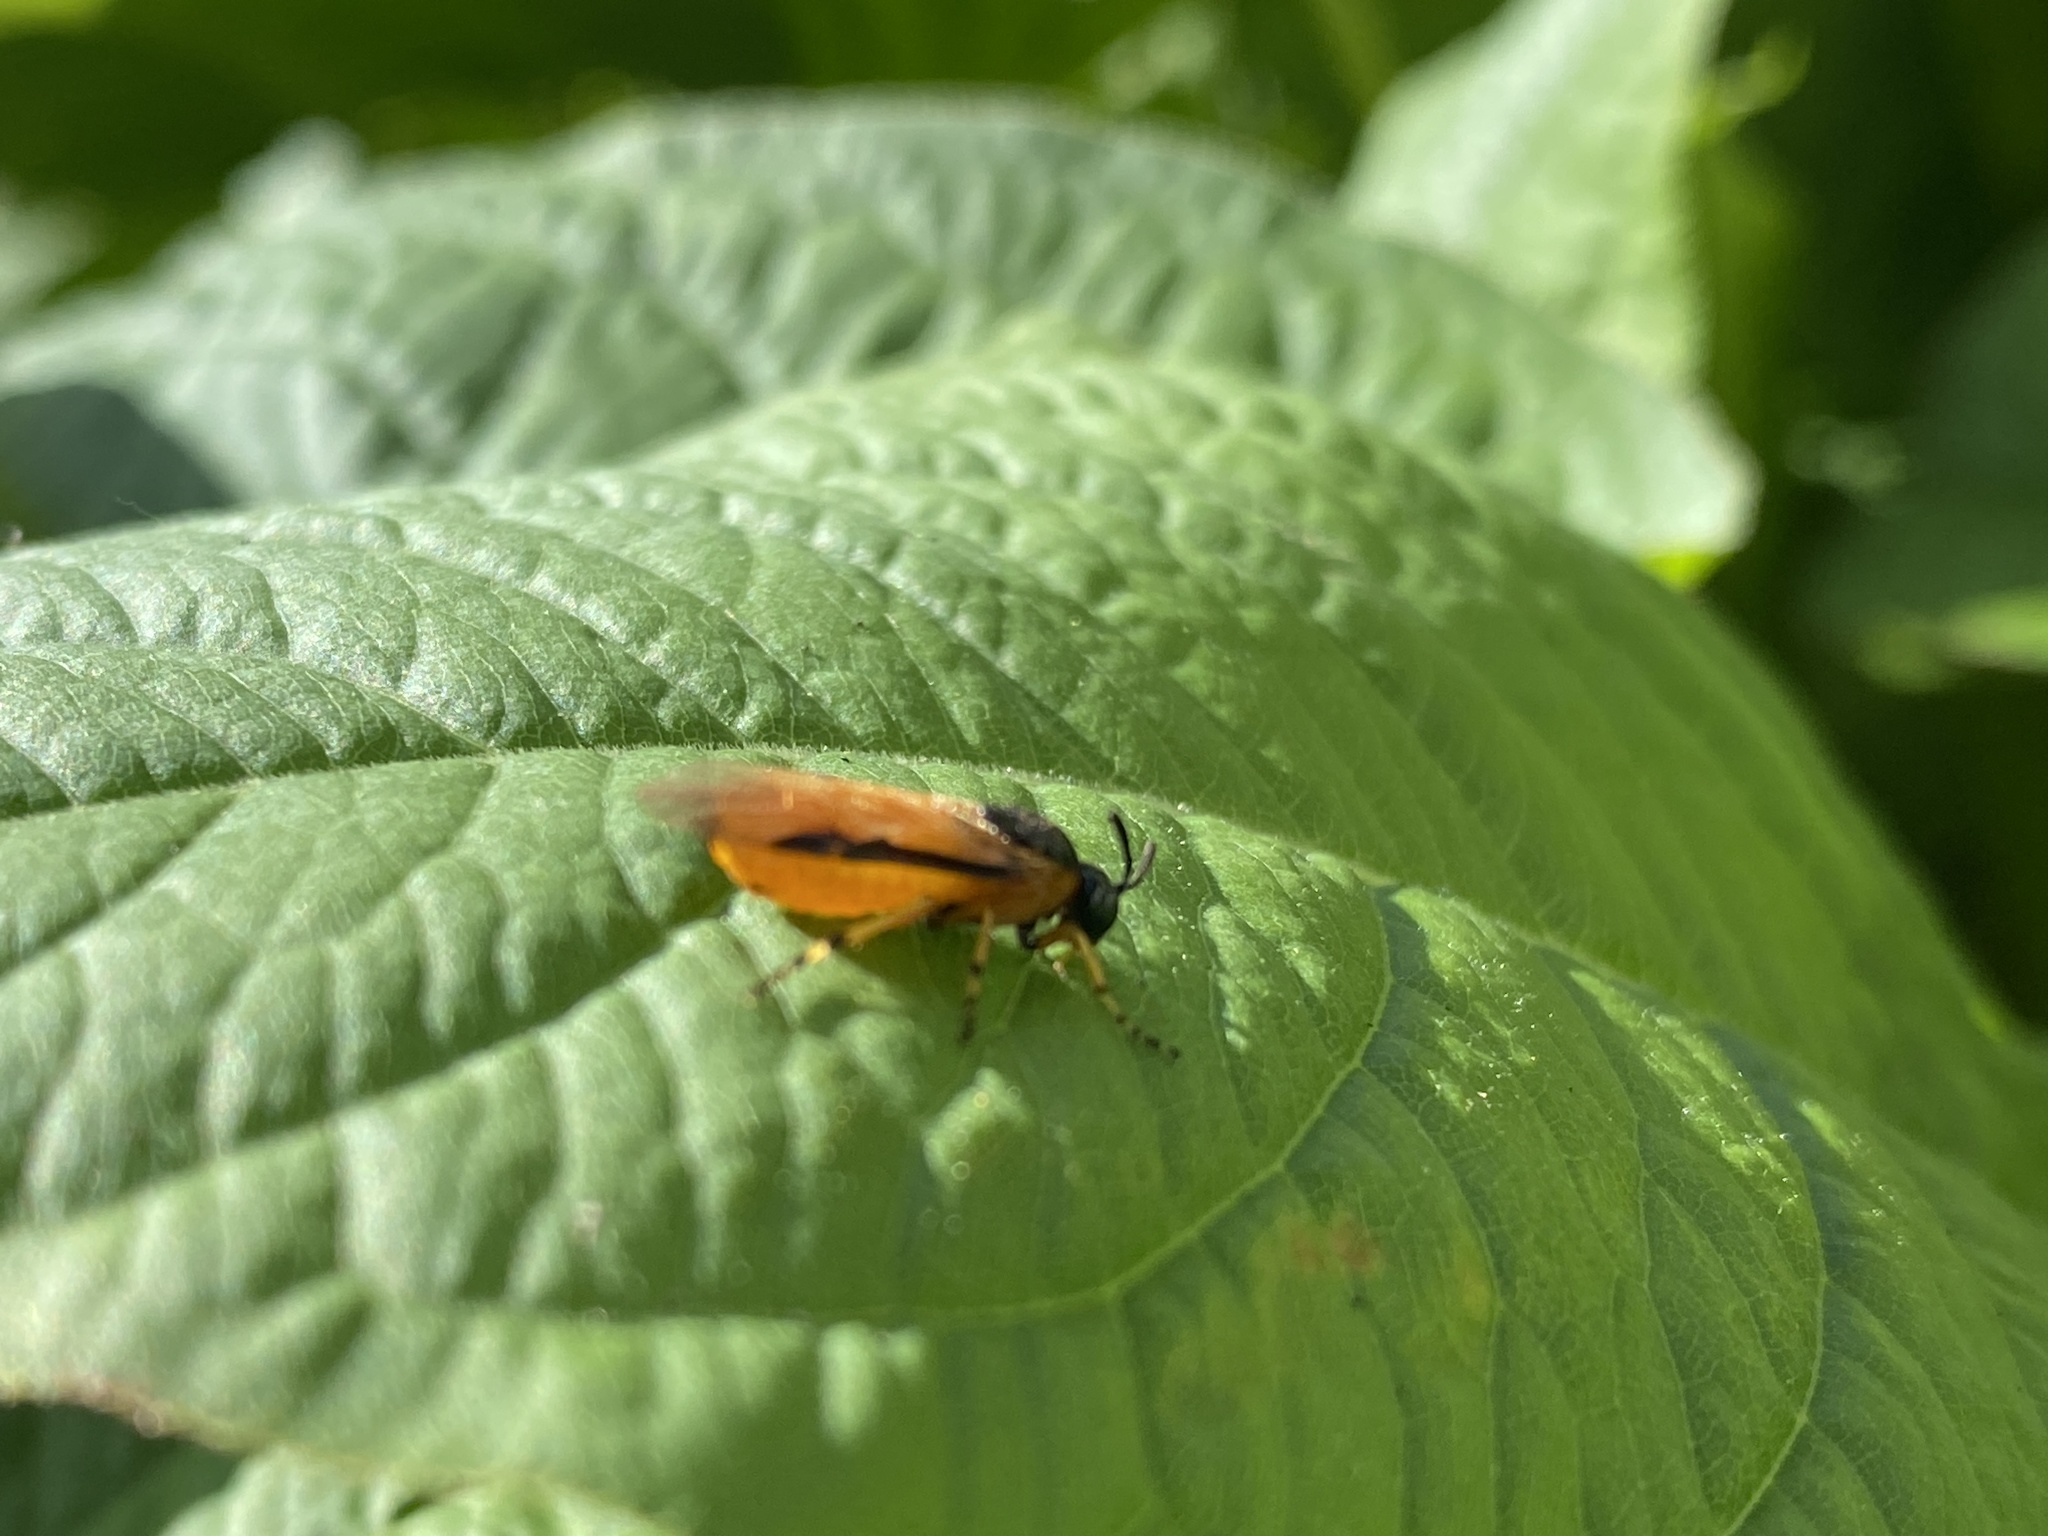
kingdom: Animalia
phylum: Arthropoda
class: Insecta
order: Hymenoptera
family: Argidae
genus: Arge
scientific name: Arge ochropus
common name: Argid sawfly
